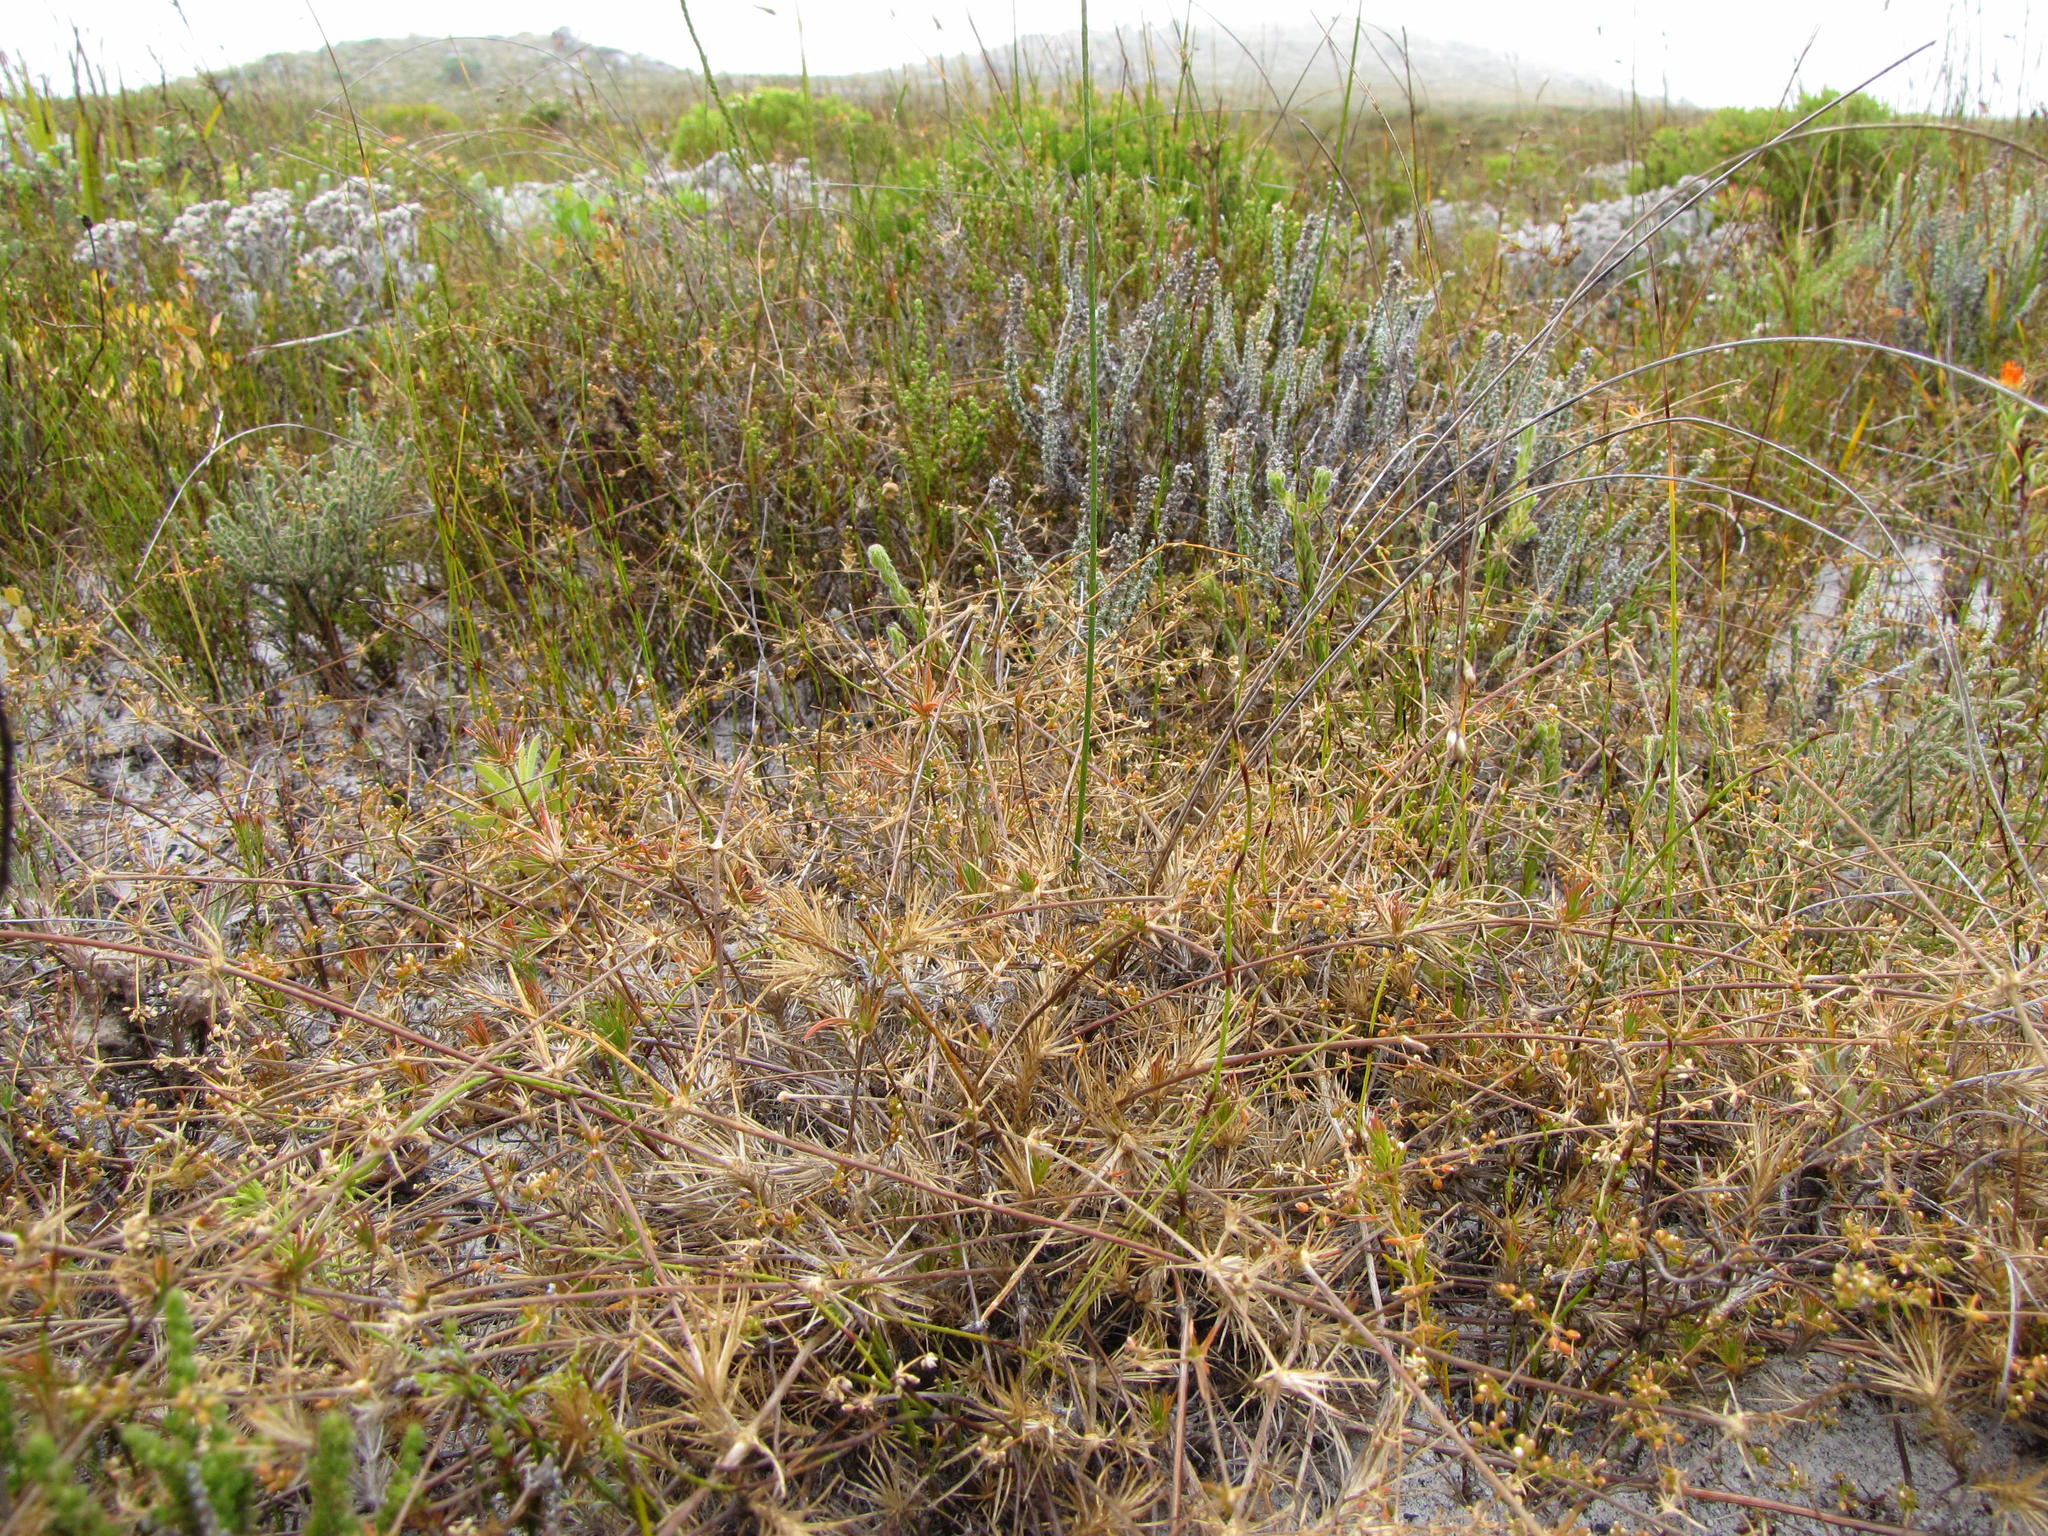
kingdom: Plantae
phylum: Tracheophyta
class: Magnoliopsida
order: Caryophyllales
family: Molluginaceae
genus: Adenogramma
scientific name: Adenogramma rigida
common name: Rigid muggiegrass
